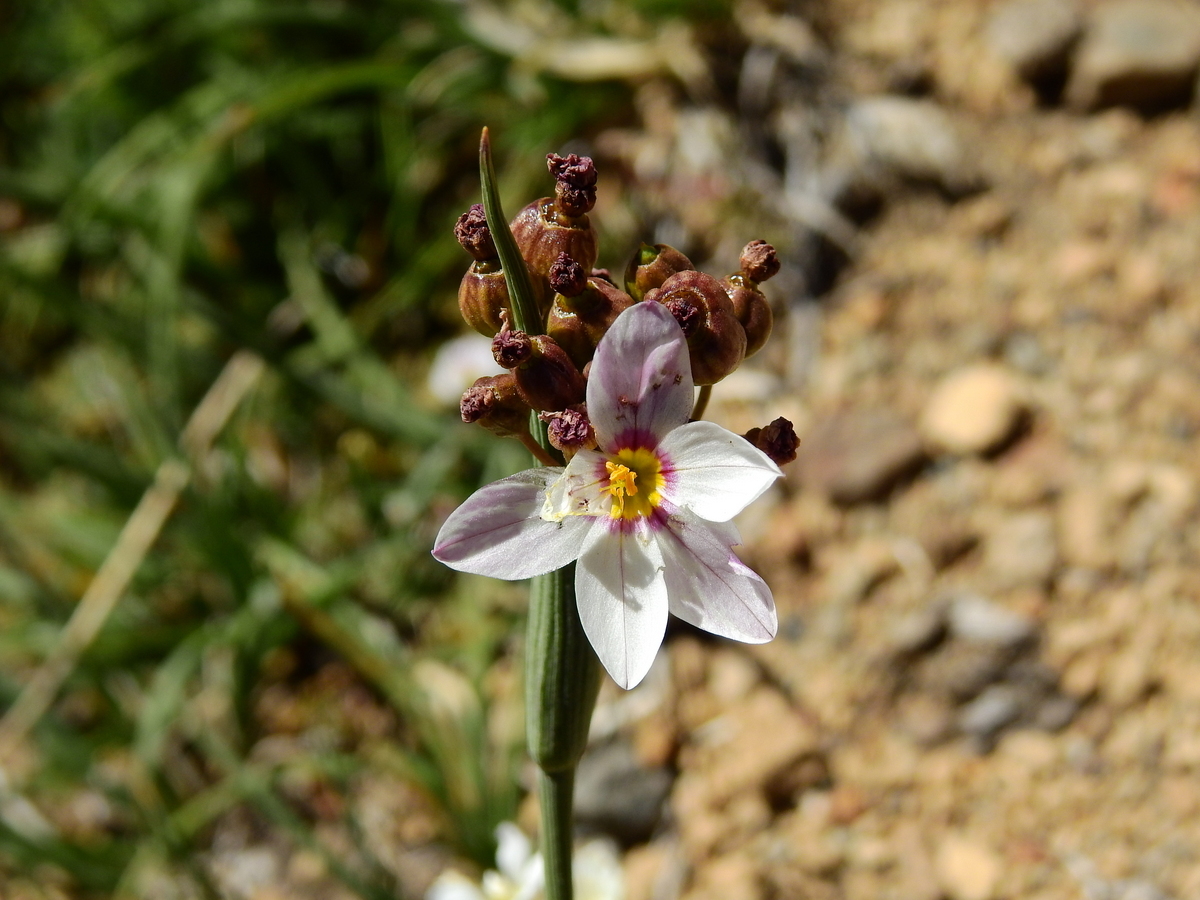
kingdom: Plantae
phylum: Tracheophyta
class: Liliopsida
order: Asparagales
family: Iridaceae
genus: Olsynium
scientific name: Olsynium junceum
